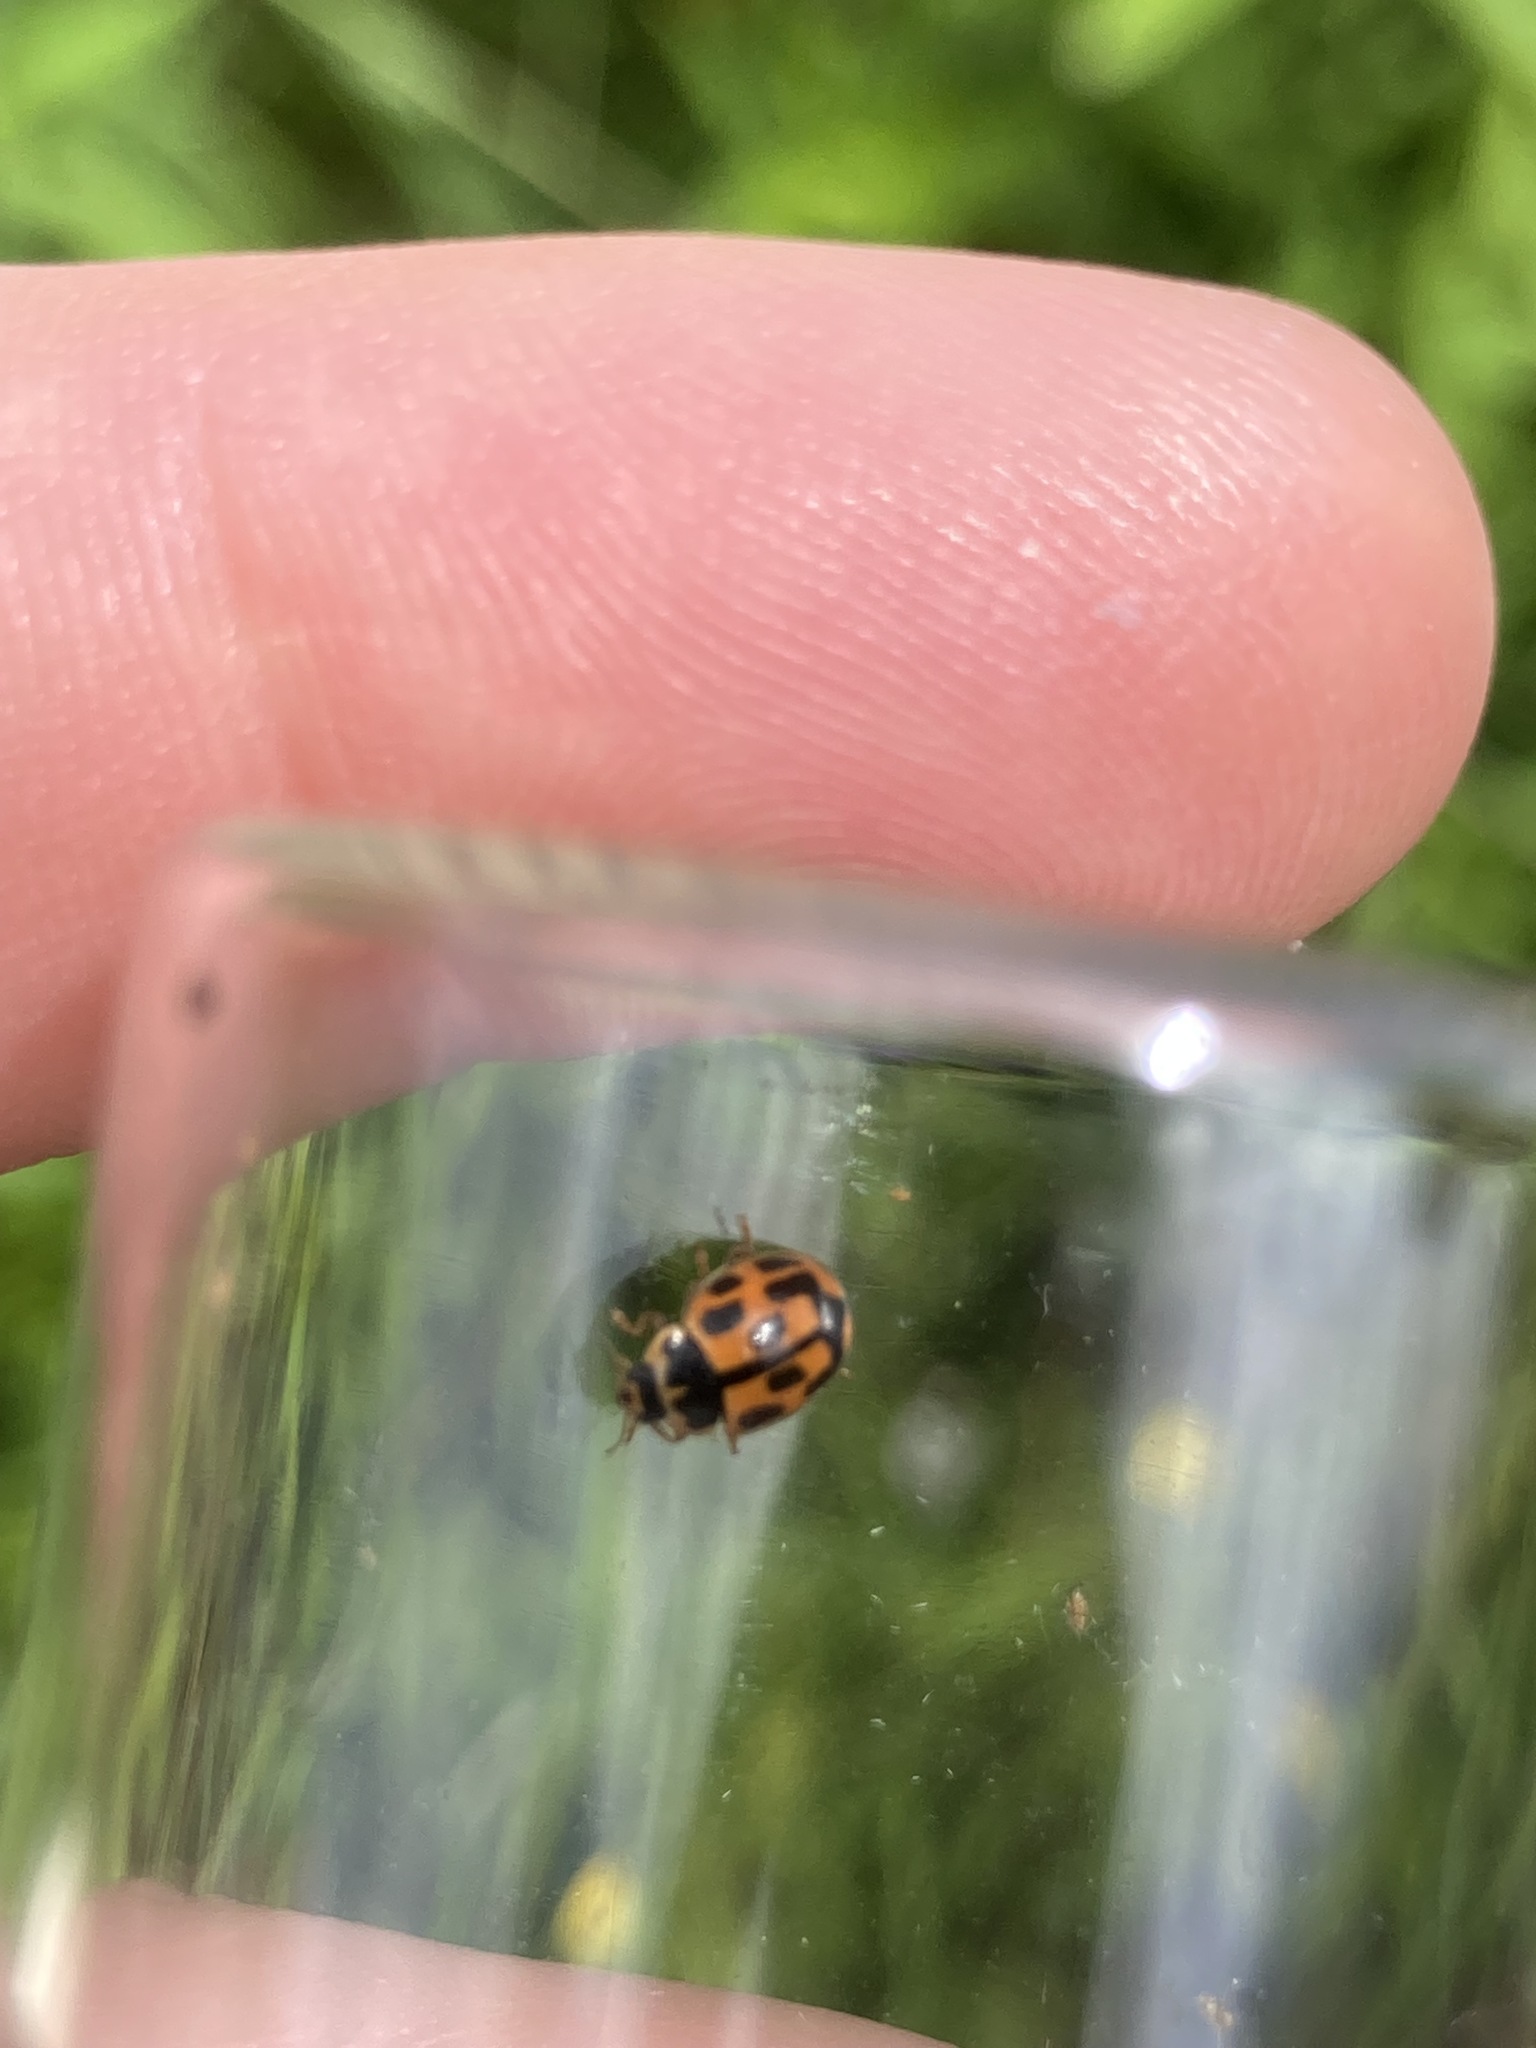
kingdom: Animalia
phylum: Arthropoda
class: Insecta
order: Coleoptera
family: Coccinellidae
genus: Propylaea
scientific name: Propylaea quatuordecimpunctata
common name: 14-spotted ladybird beetle
